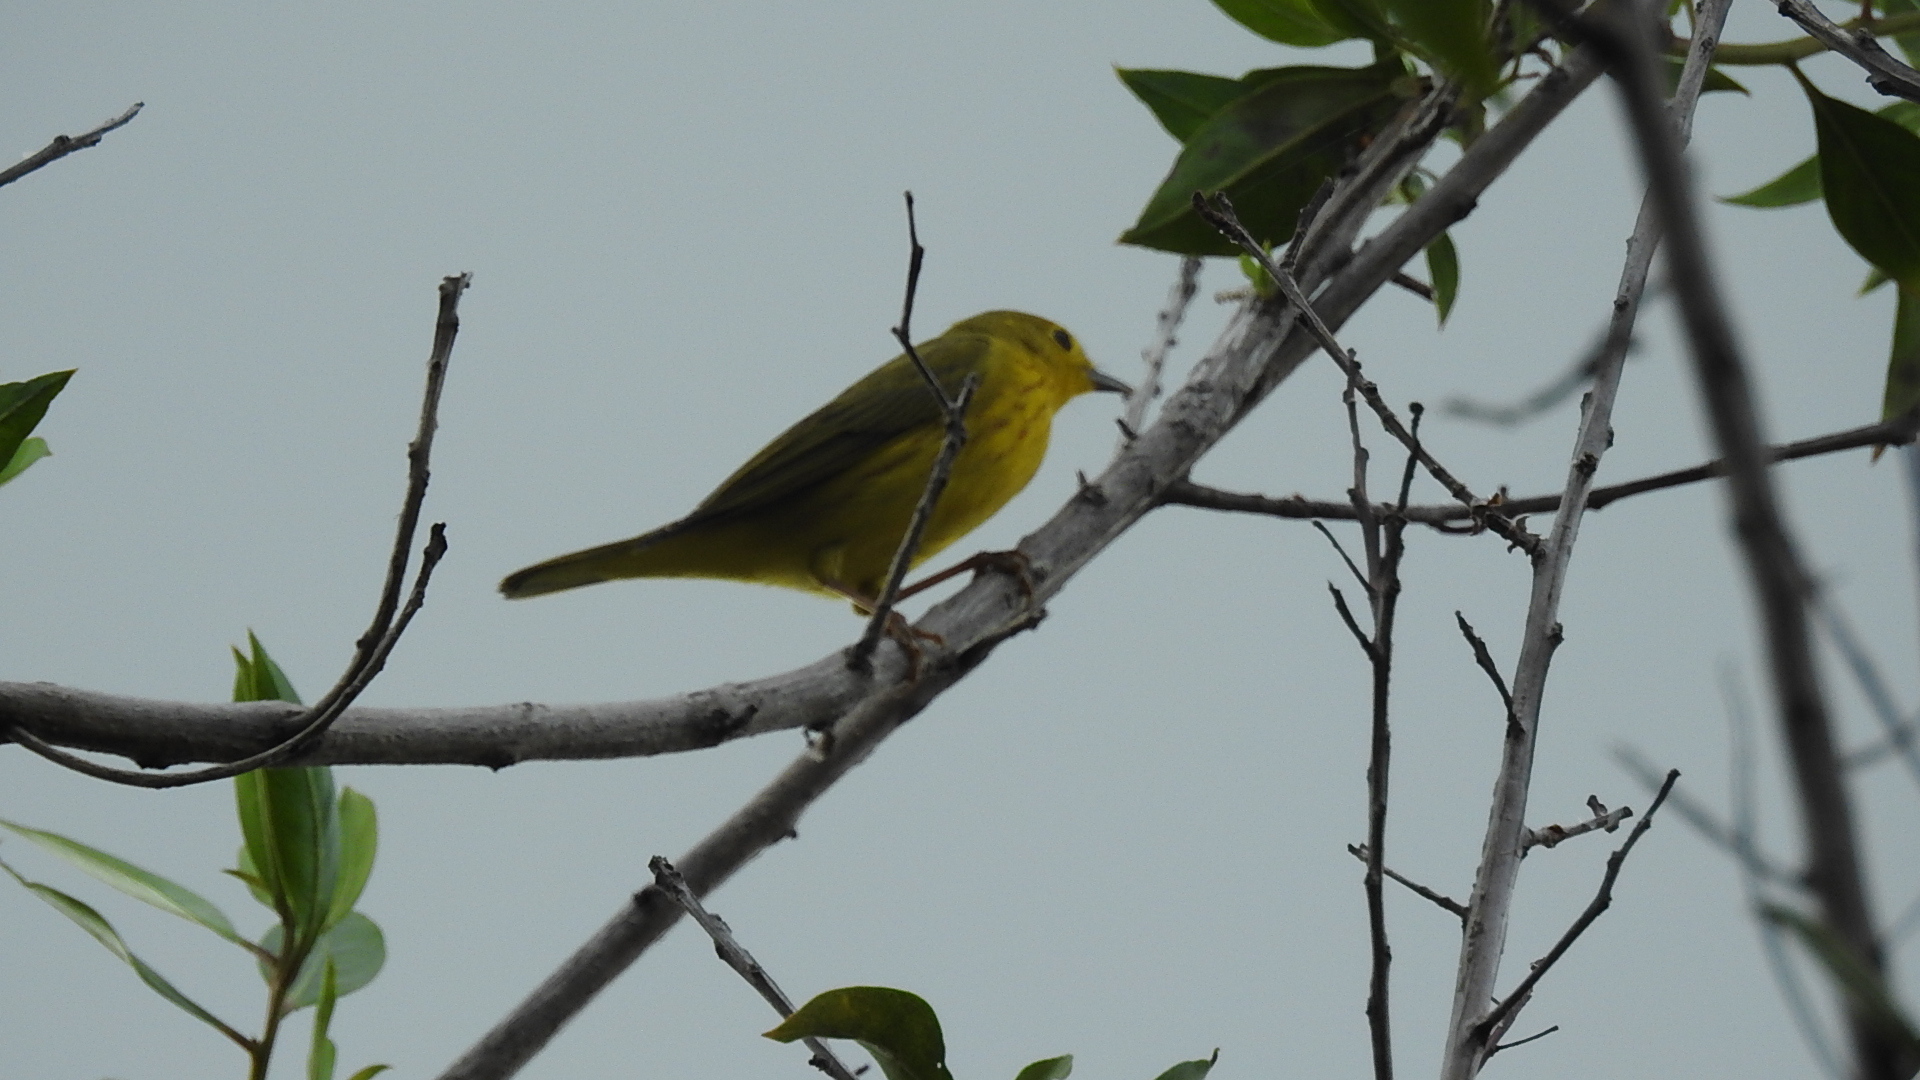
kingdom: Animalia
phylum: Chordata
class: Aves
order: Passeriformes
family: Parulidae
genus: Setophaga
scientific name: Setophaga petechia
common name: Yellow warbler
